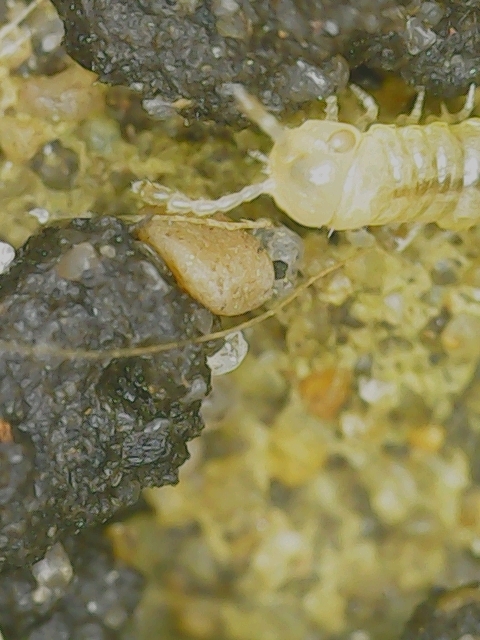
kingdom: Animalia
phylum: Arthropoda
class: Diplopoda
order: Polydesmida
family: Paradoxosomatidae
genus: Oxidus
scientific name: Oxidus gracilis
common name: Greenhouse millipede
